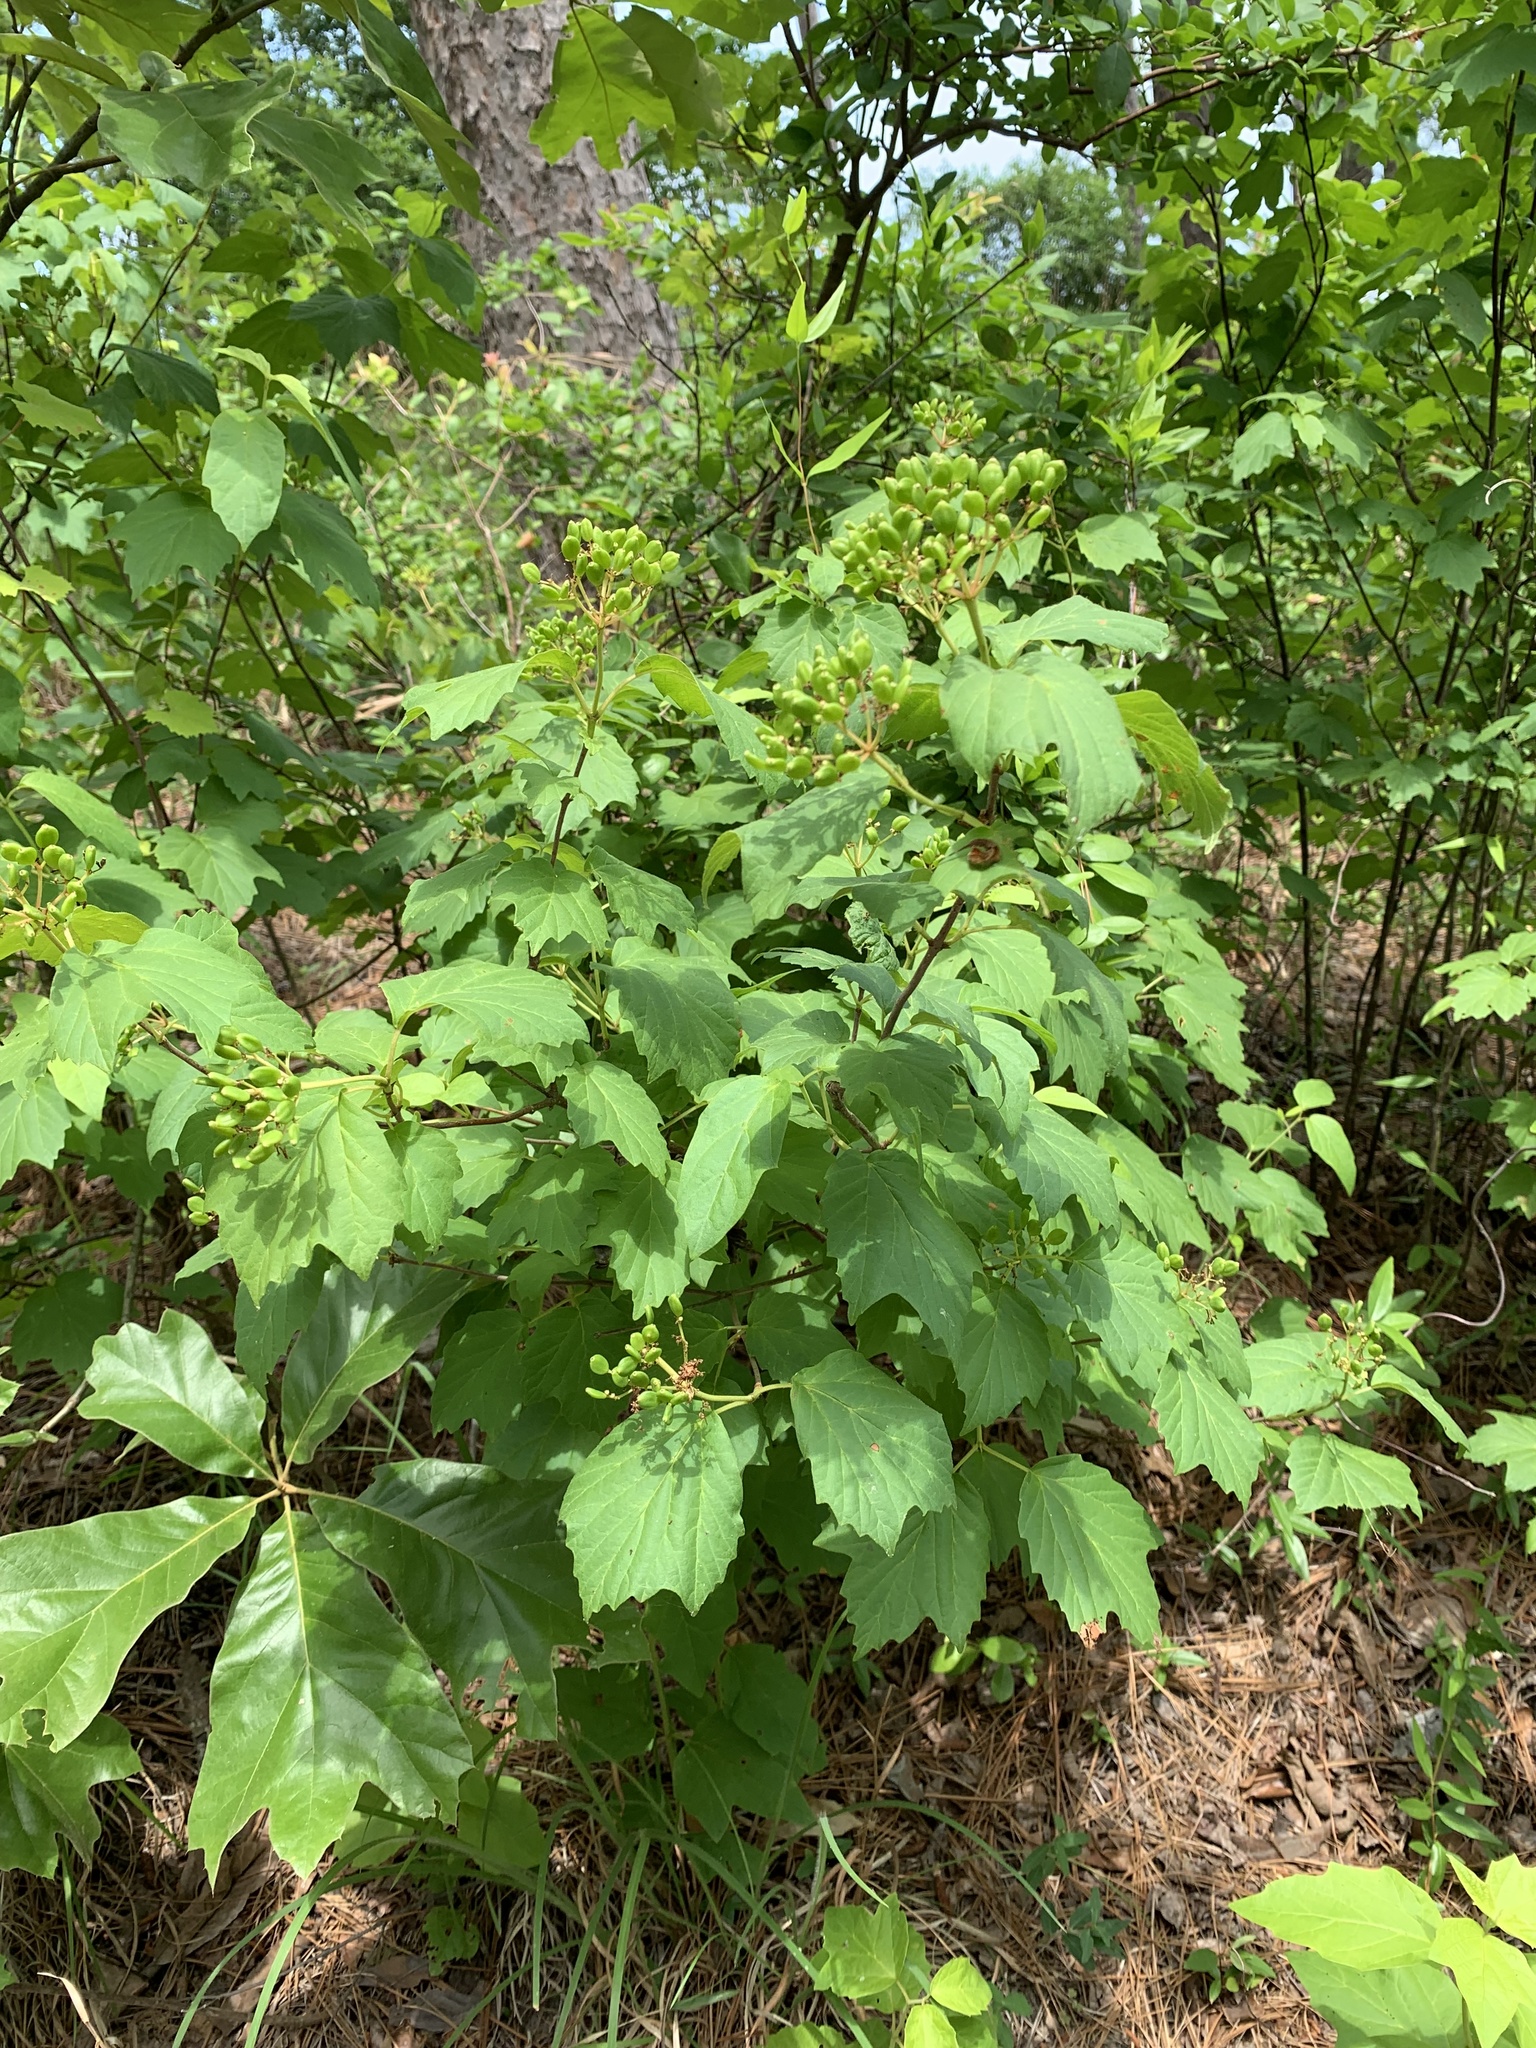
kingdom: Plantae
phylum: Tracheophyta
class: Magnoliopsida
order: Dipsacales
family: Viburnaceae
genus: Viburnum
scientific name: Viburnum acerifolium
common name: Dockmackie
